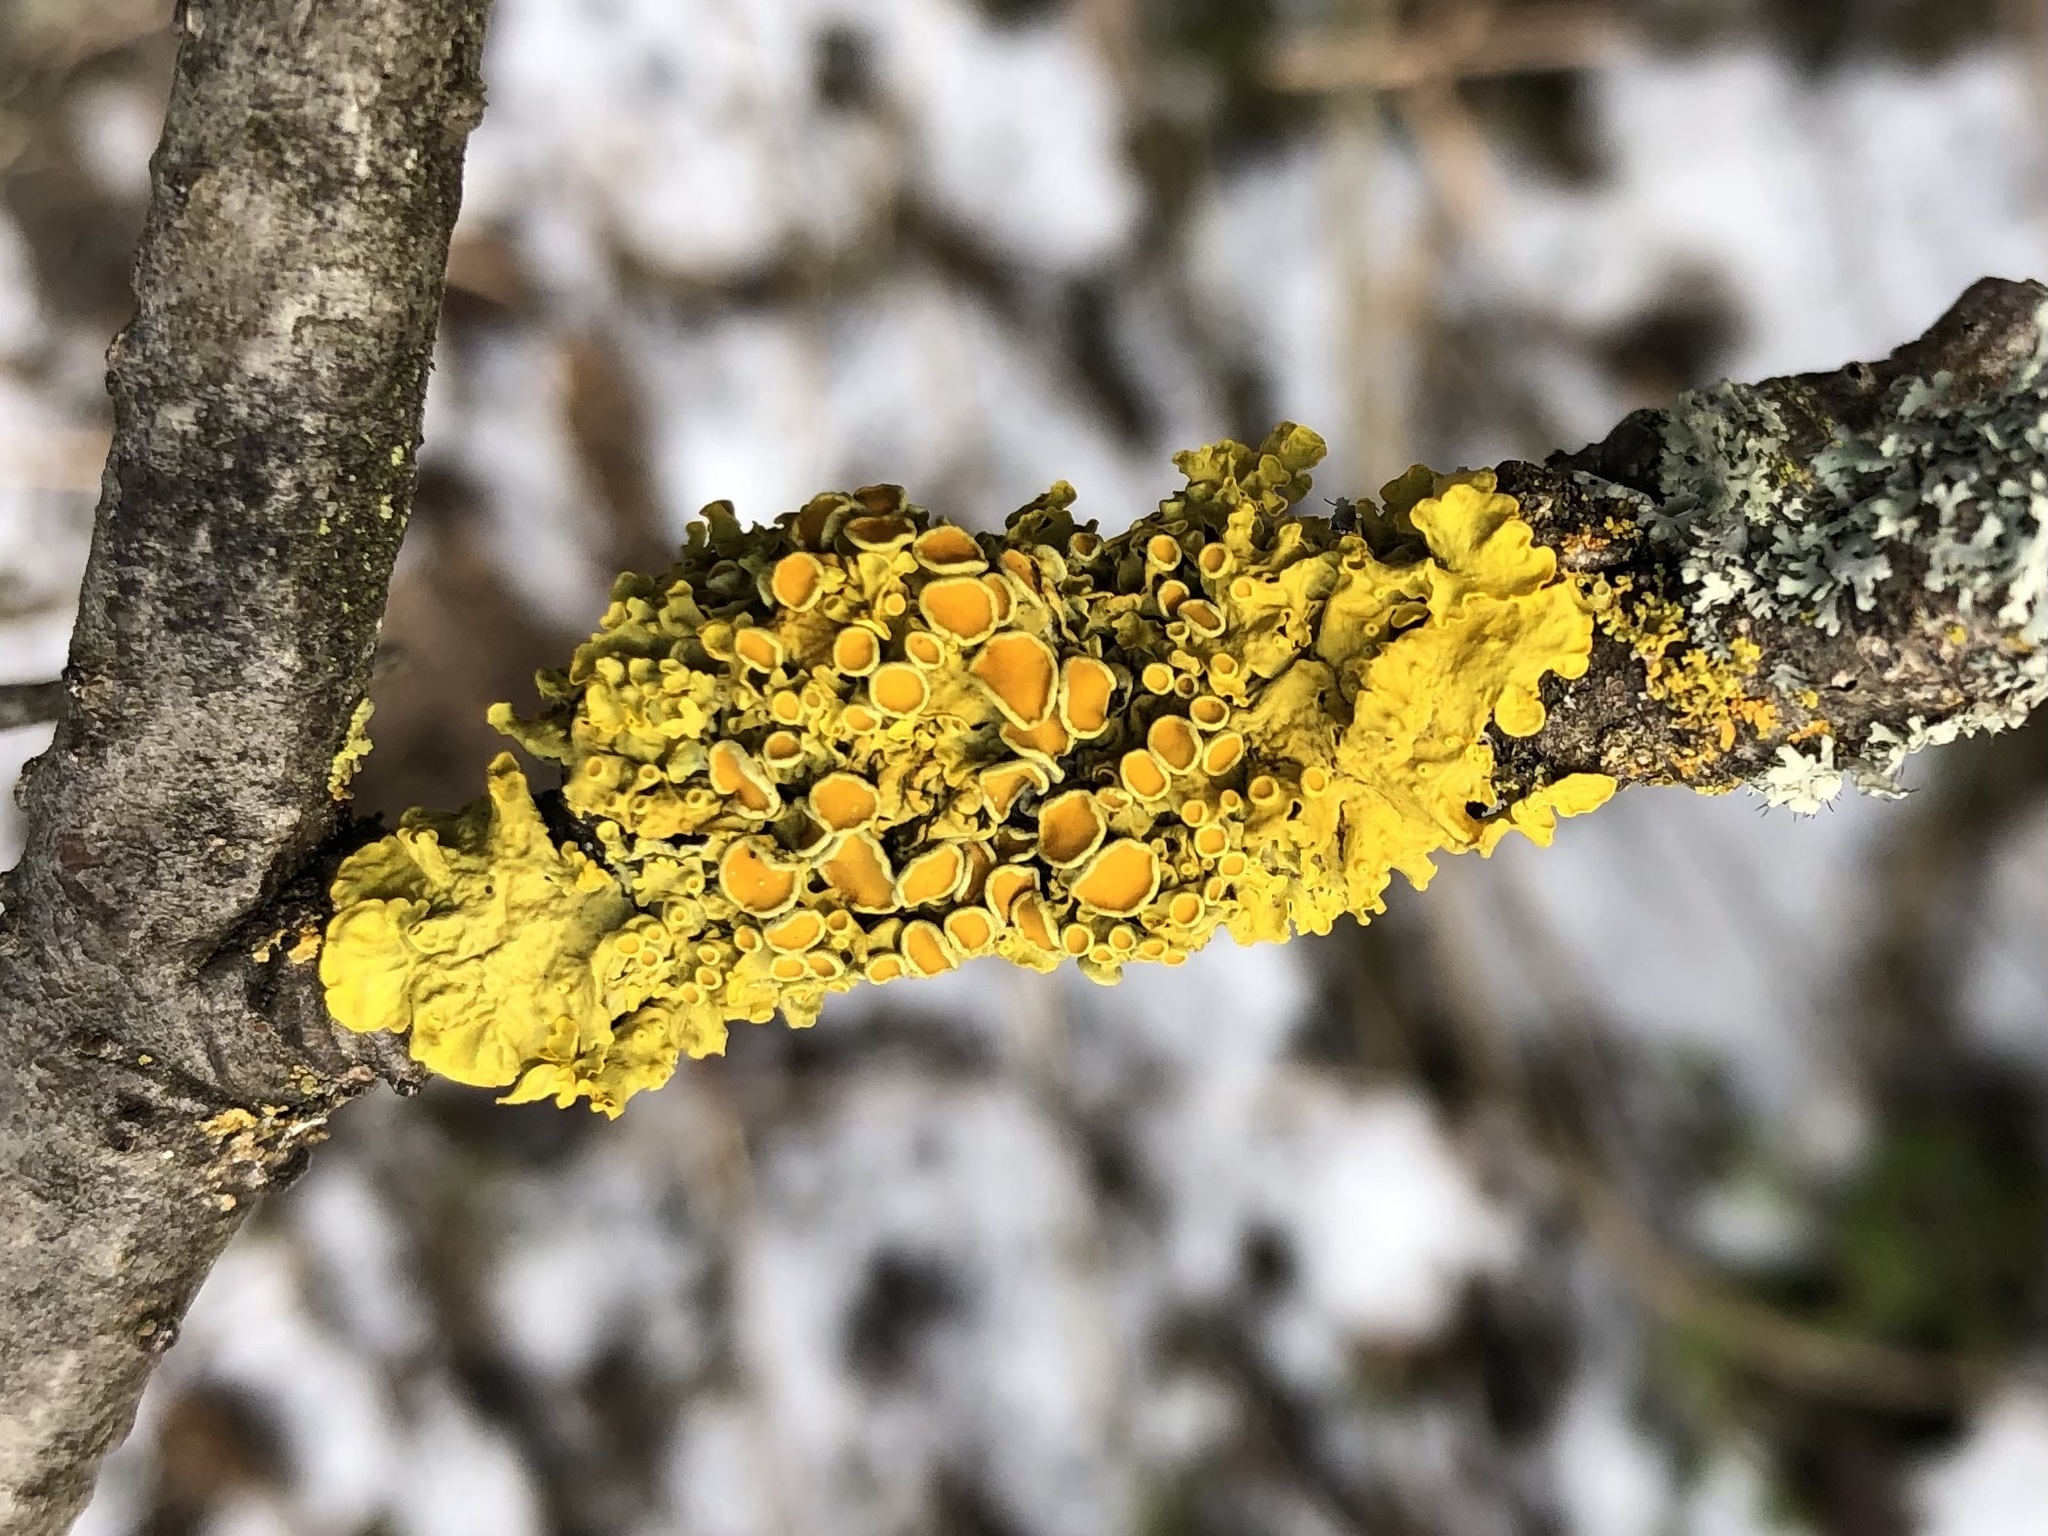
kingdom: Fungi
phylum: Ascomycota
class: Lecanoromycetes
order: Teloschistales
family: Teloschistaceae
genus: Xanthoria
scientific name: Xanthoria parietina
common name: Common orange lichen
